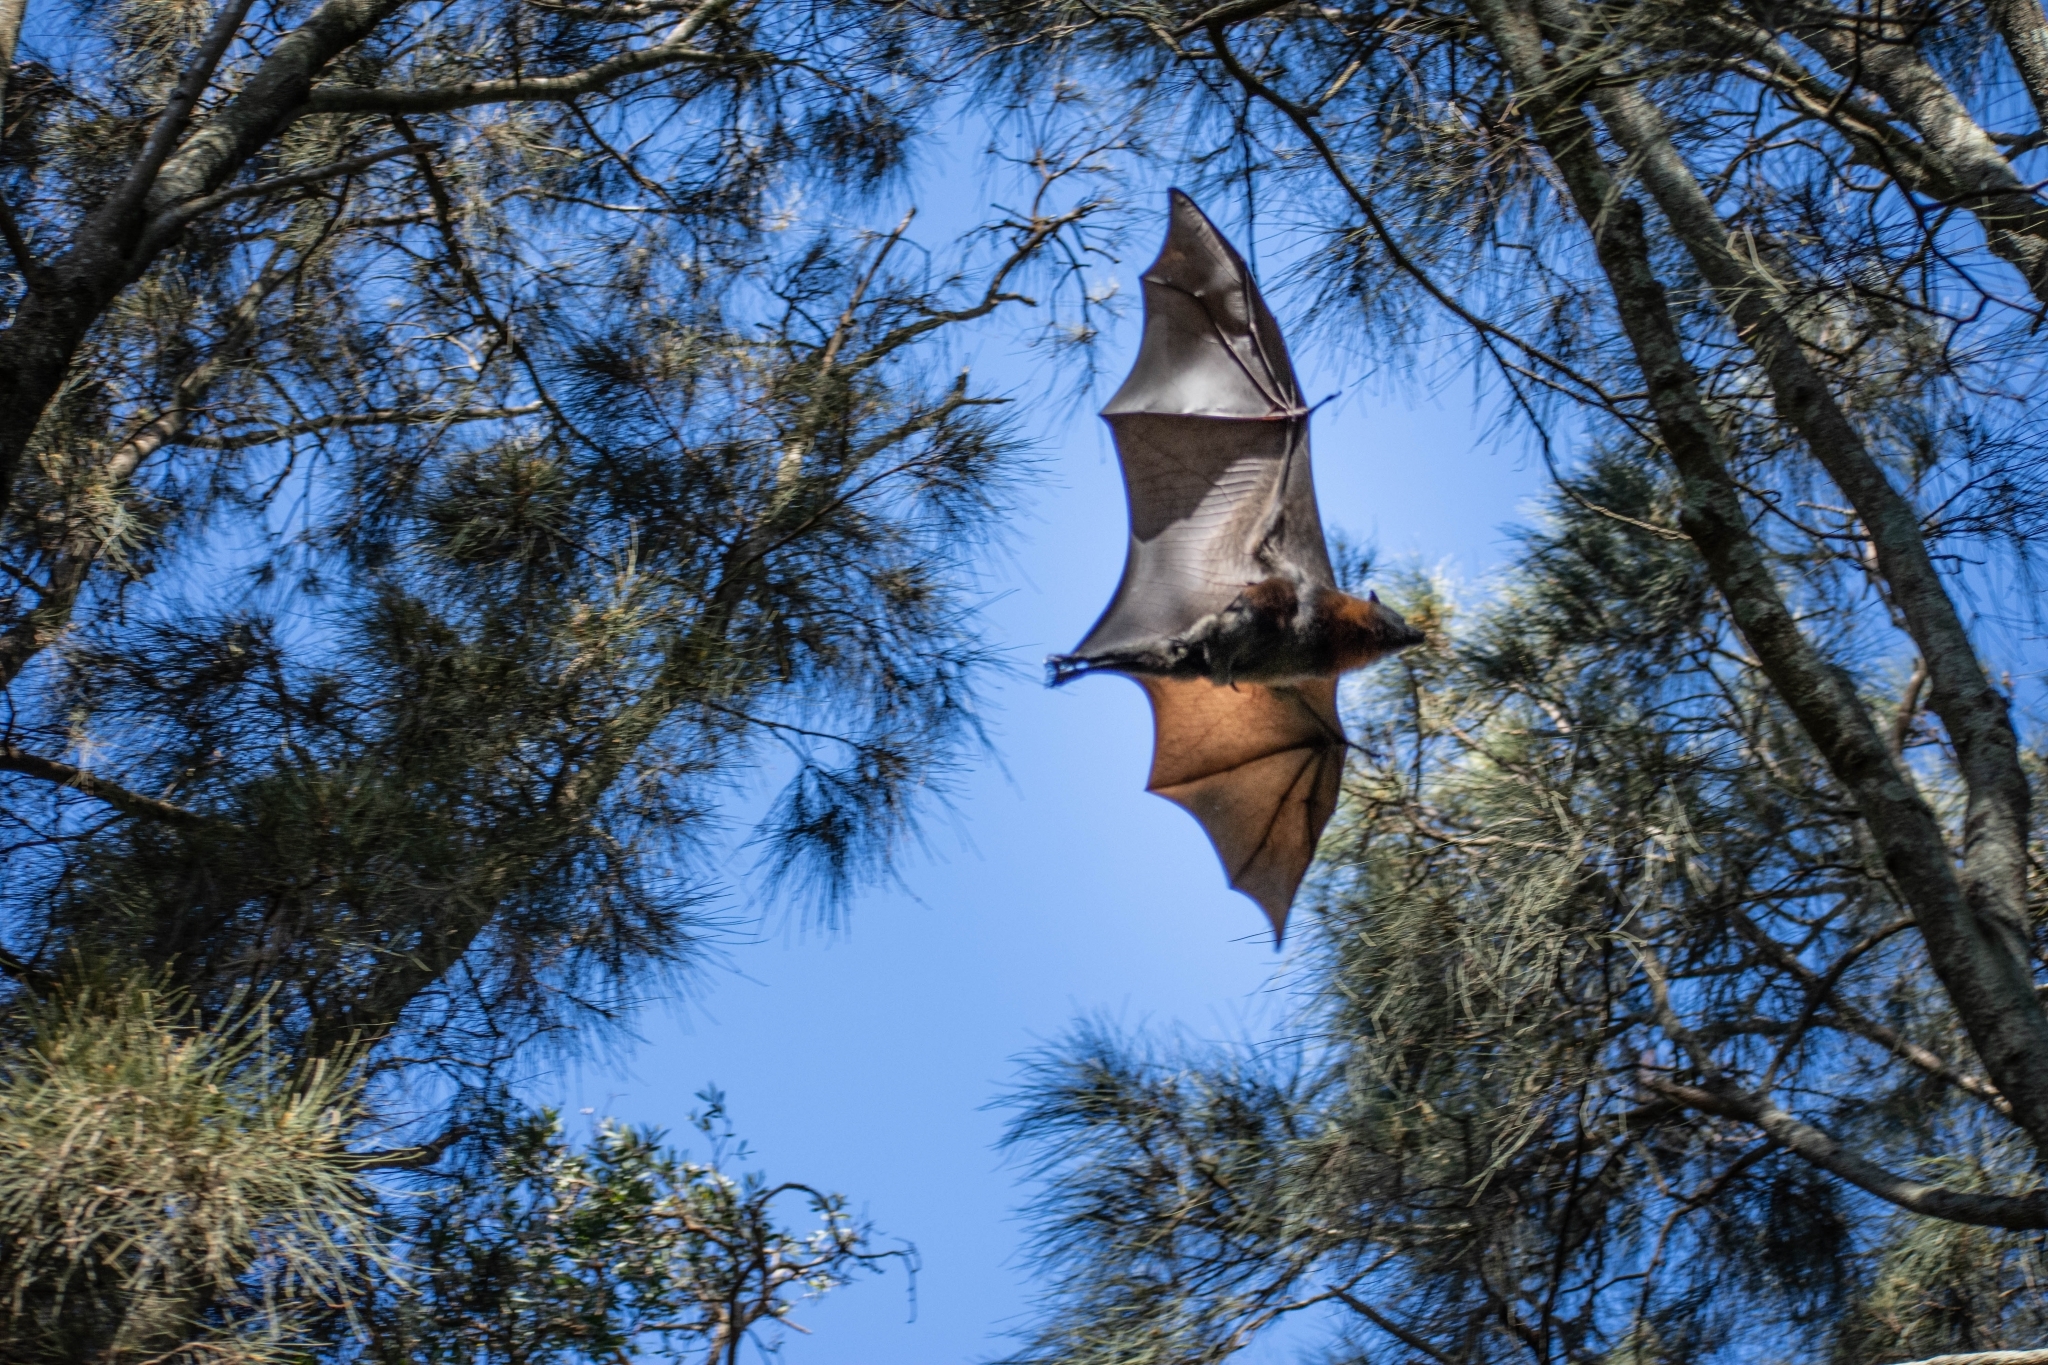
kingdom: Animalia
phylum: Chordata
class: Mammalia
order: Chiroptera
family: Pteropodidae
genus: Pteropus
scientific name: Pteropus poliocephalus
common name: Gray-headed flying fox
